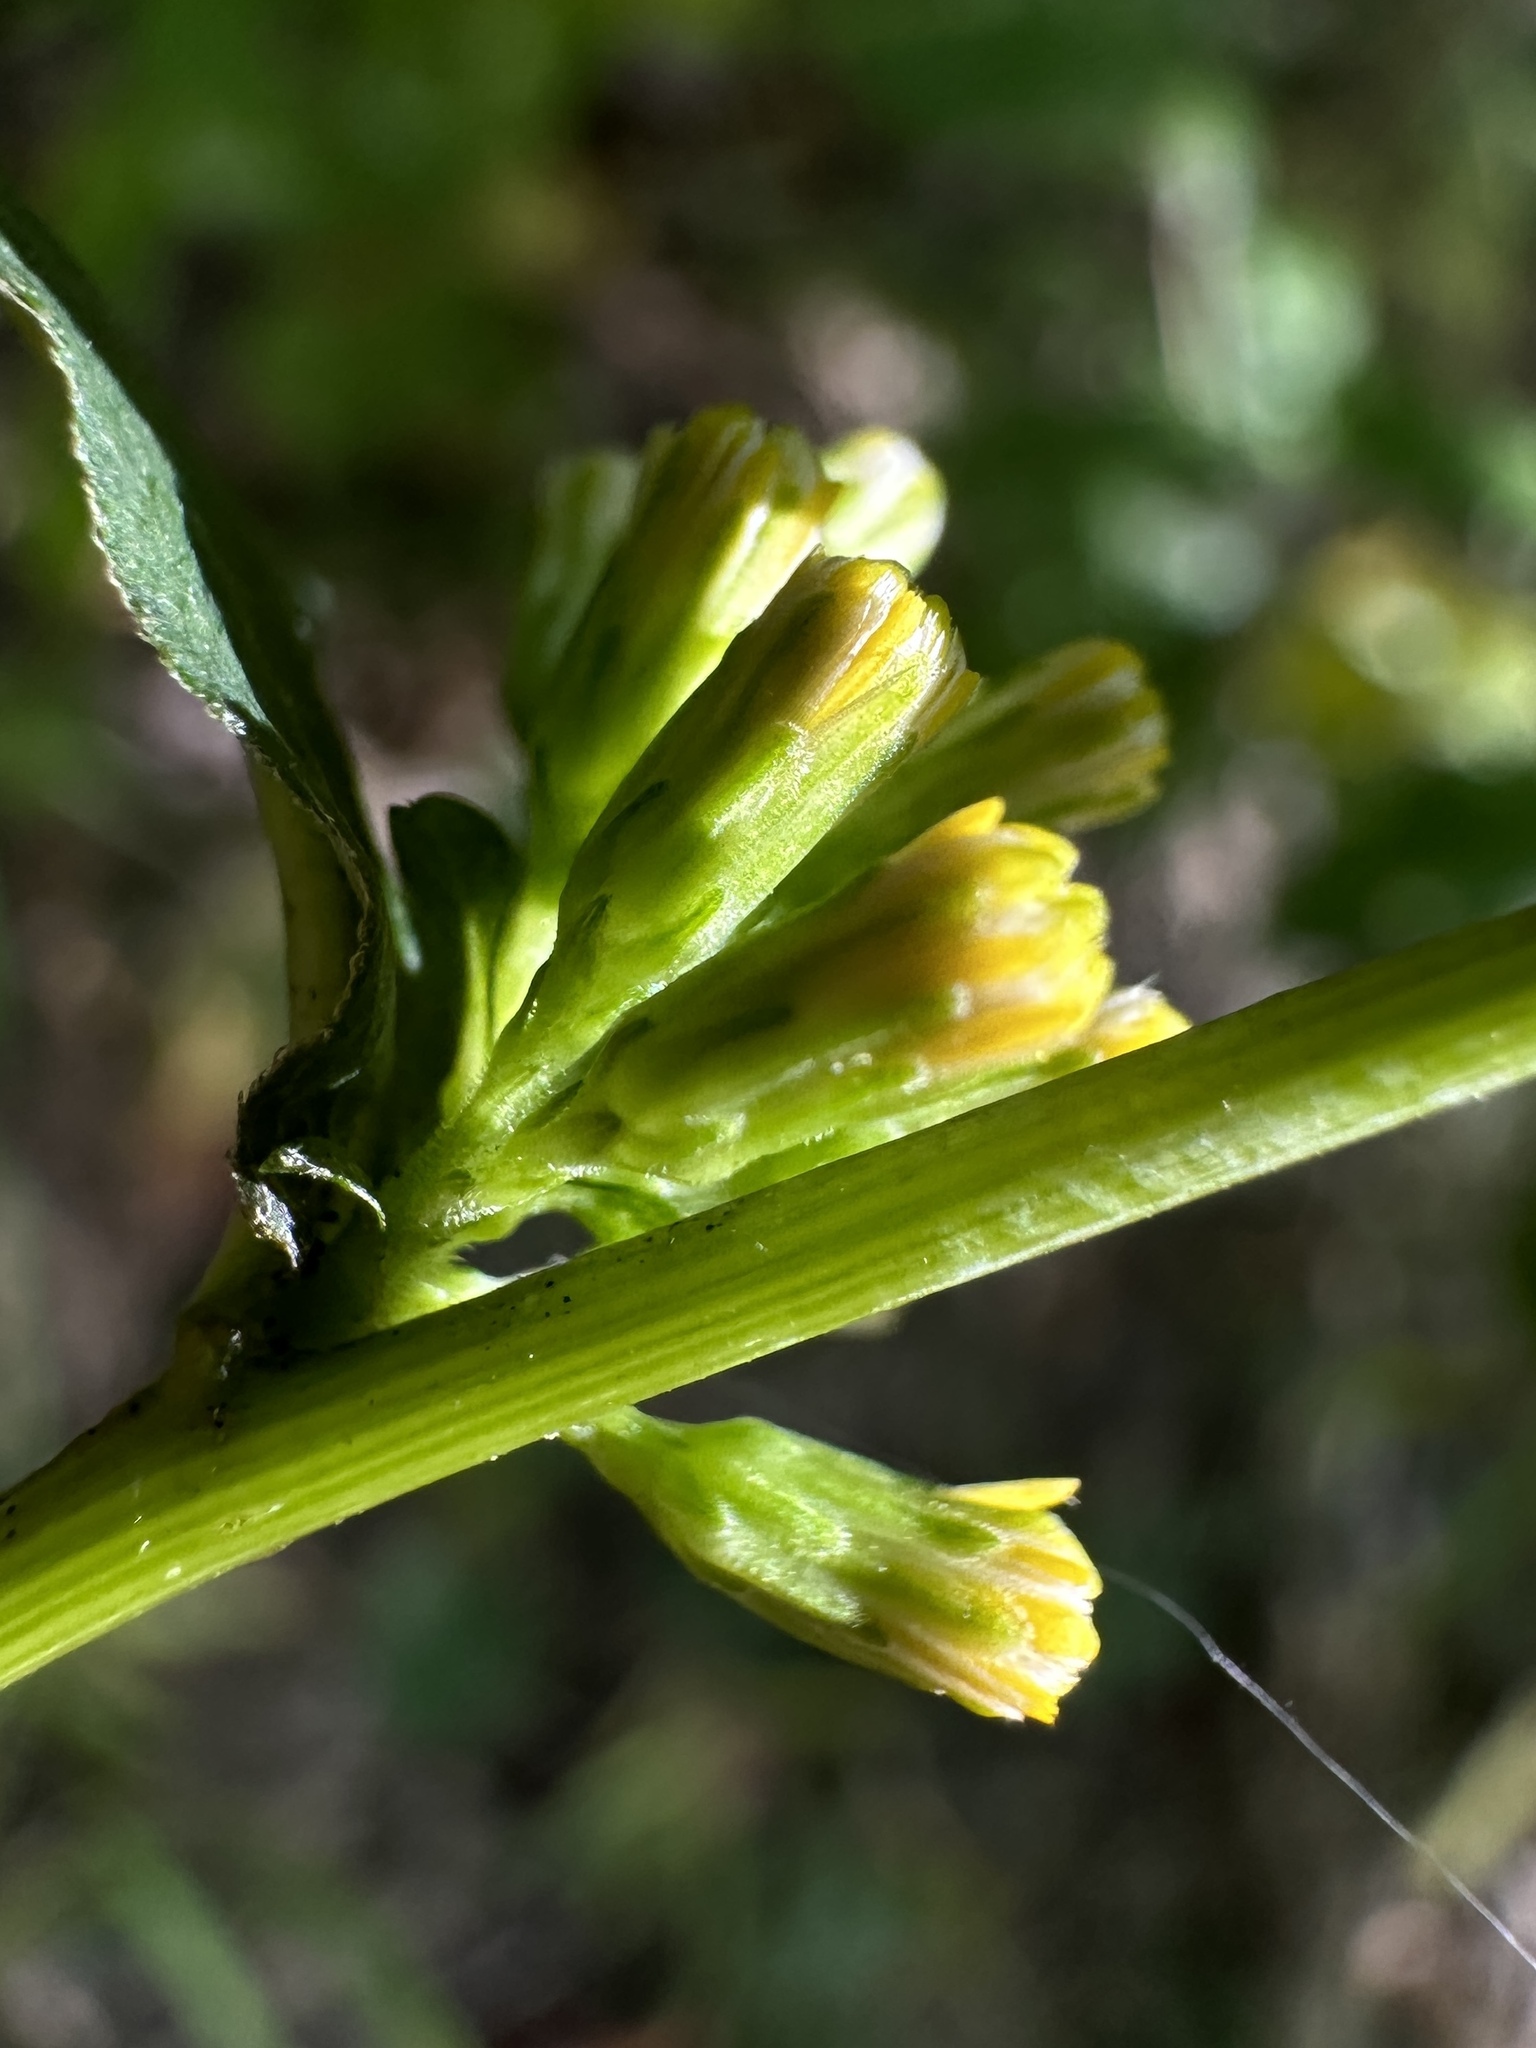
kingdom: Plantae
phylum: Tracheophyta
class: Magnoliopsida
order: Asterales
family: Asteraceae
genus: Solidago
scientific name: Solidago caesia
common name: Woodland goldenrod
